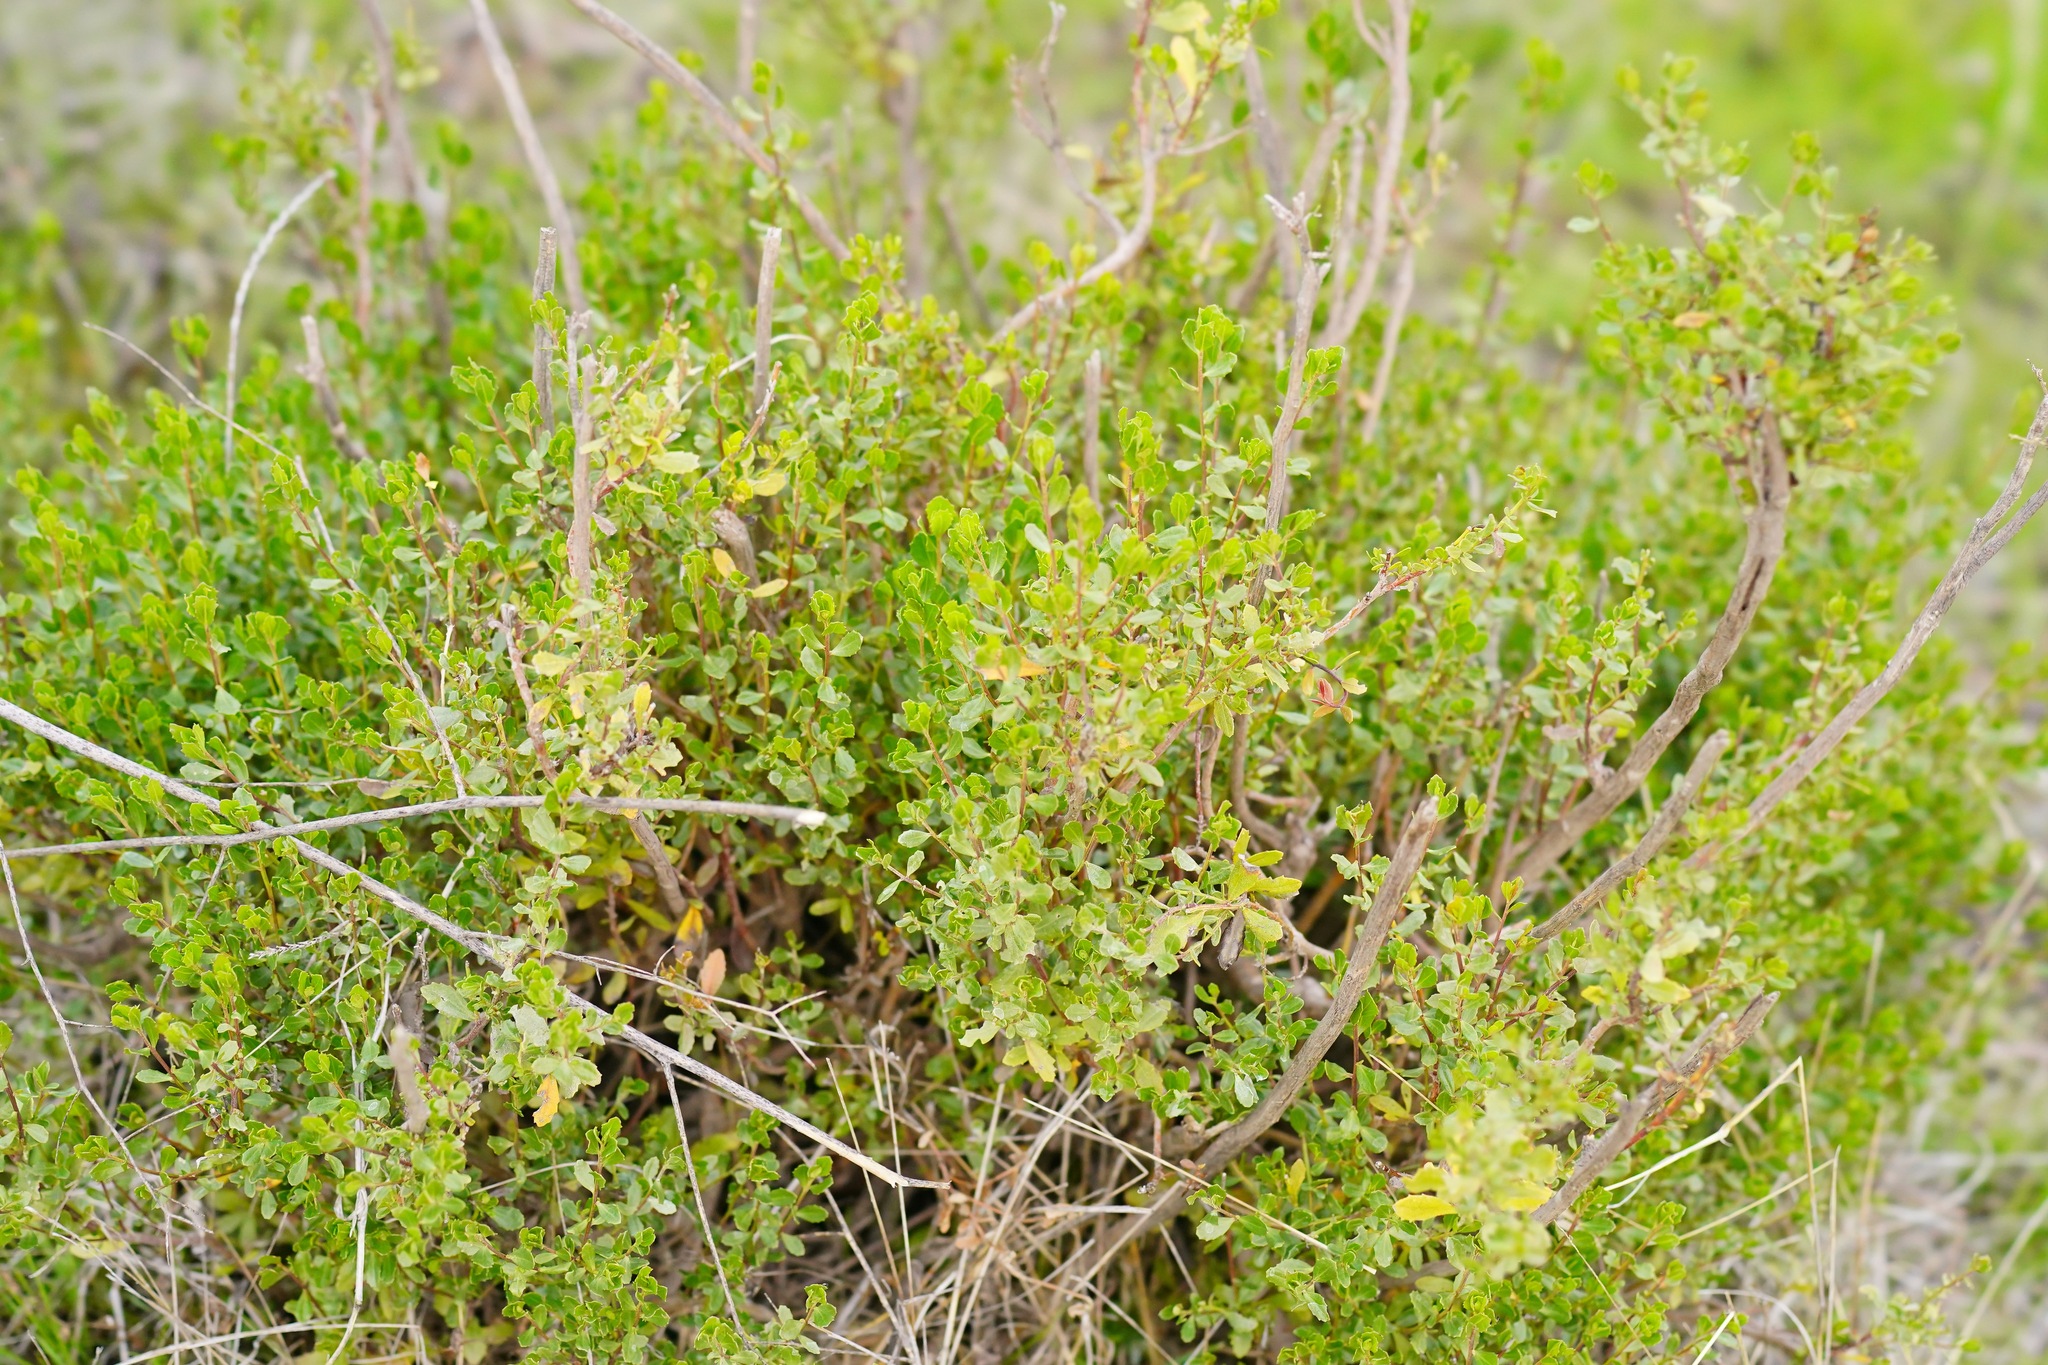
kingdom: Plantae
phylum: Tracheophyta
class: Magnoliopsida
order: Asterales
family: Asteraceae
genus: Baccharis
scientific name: Baccharis pilularis
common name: Coyotebrush
